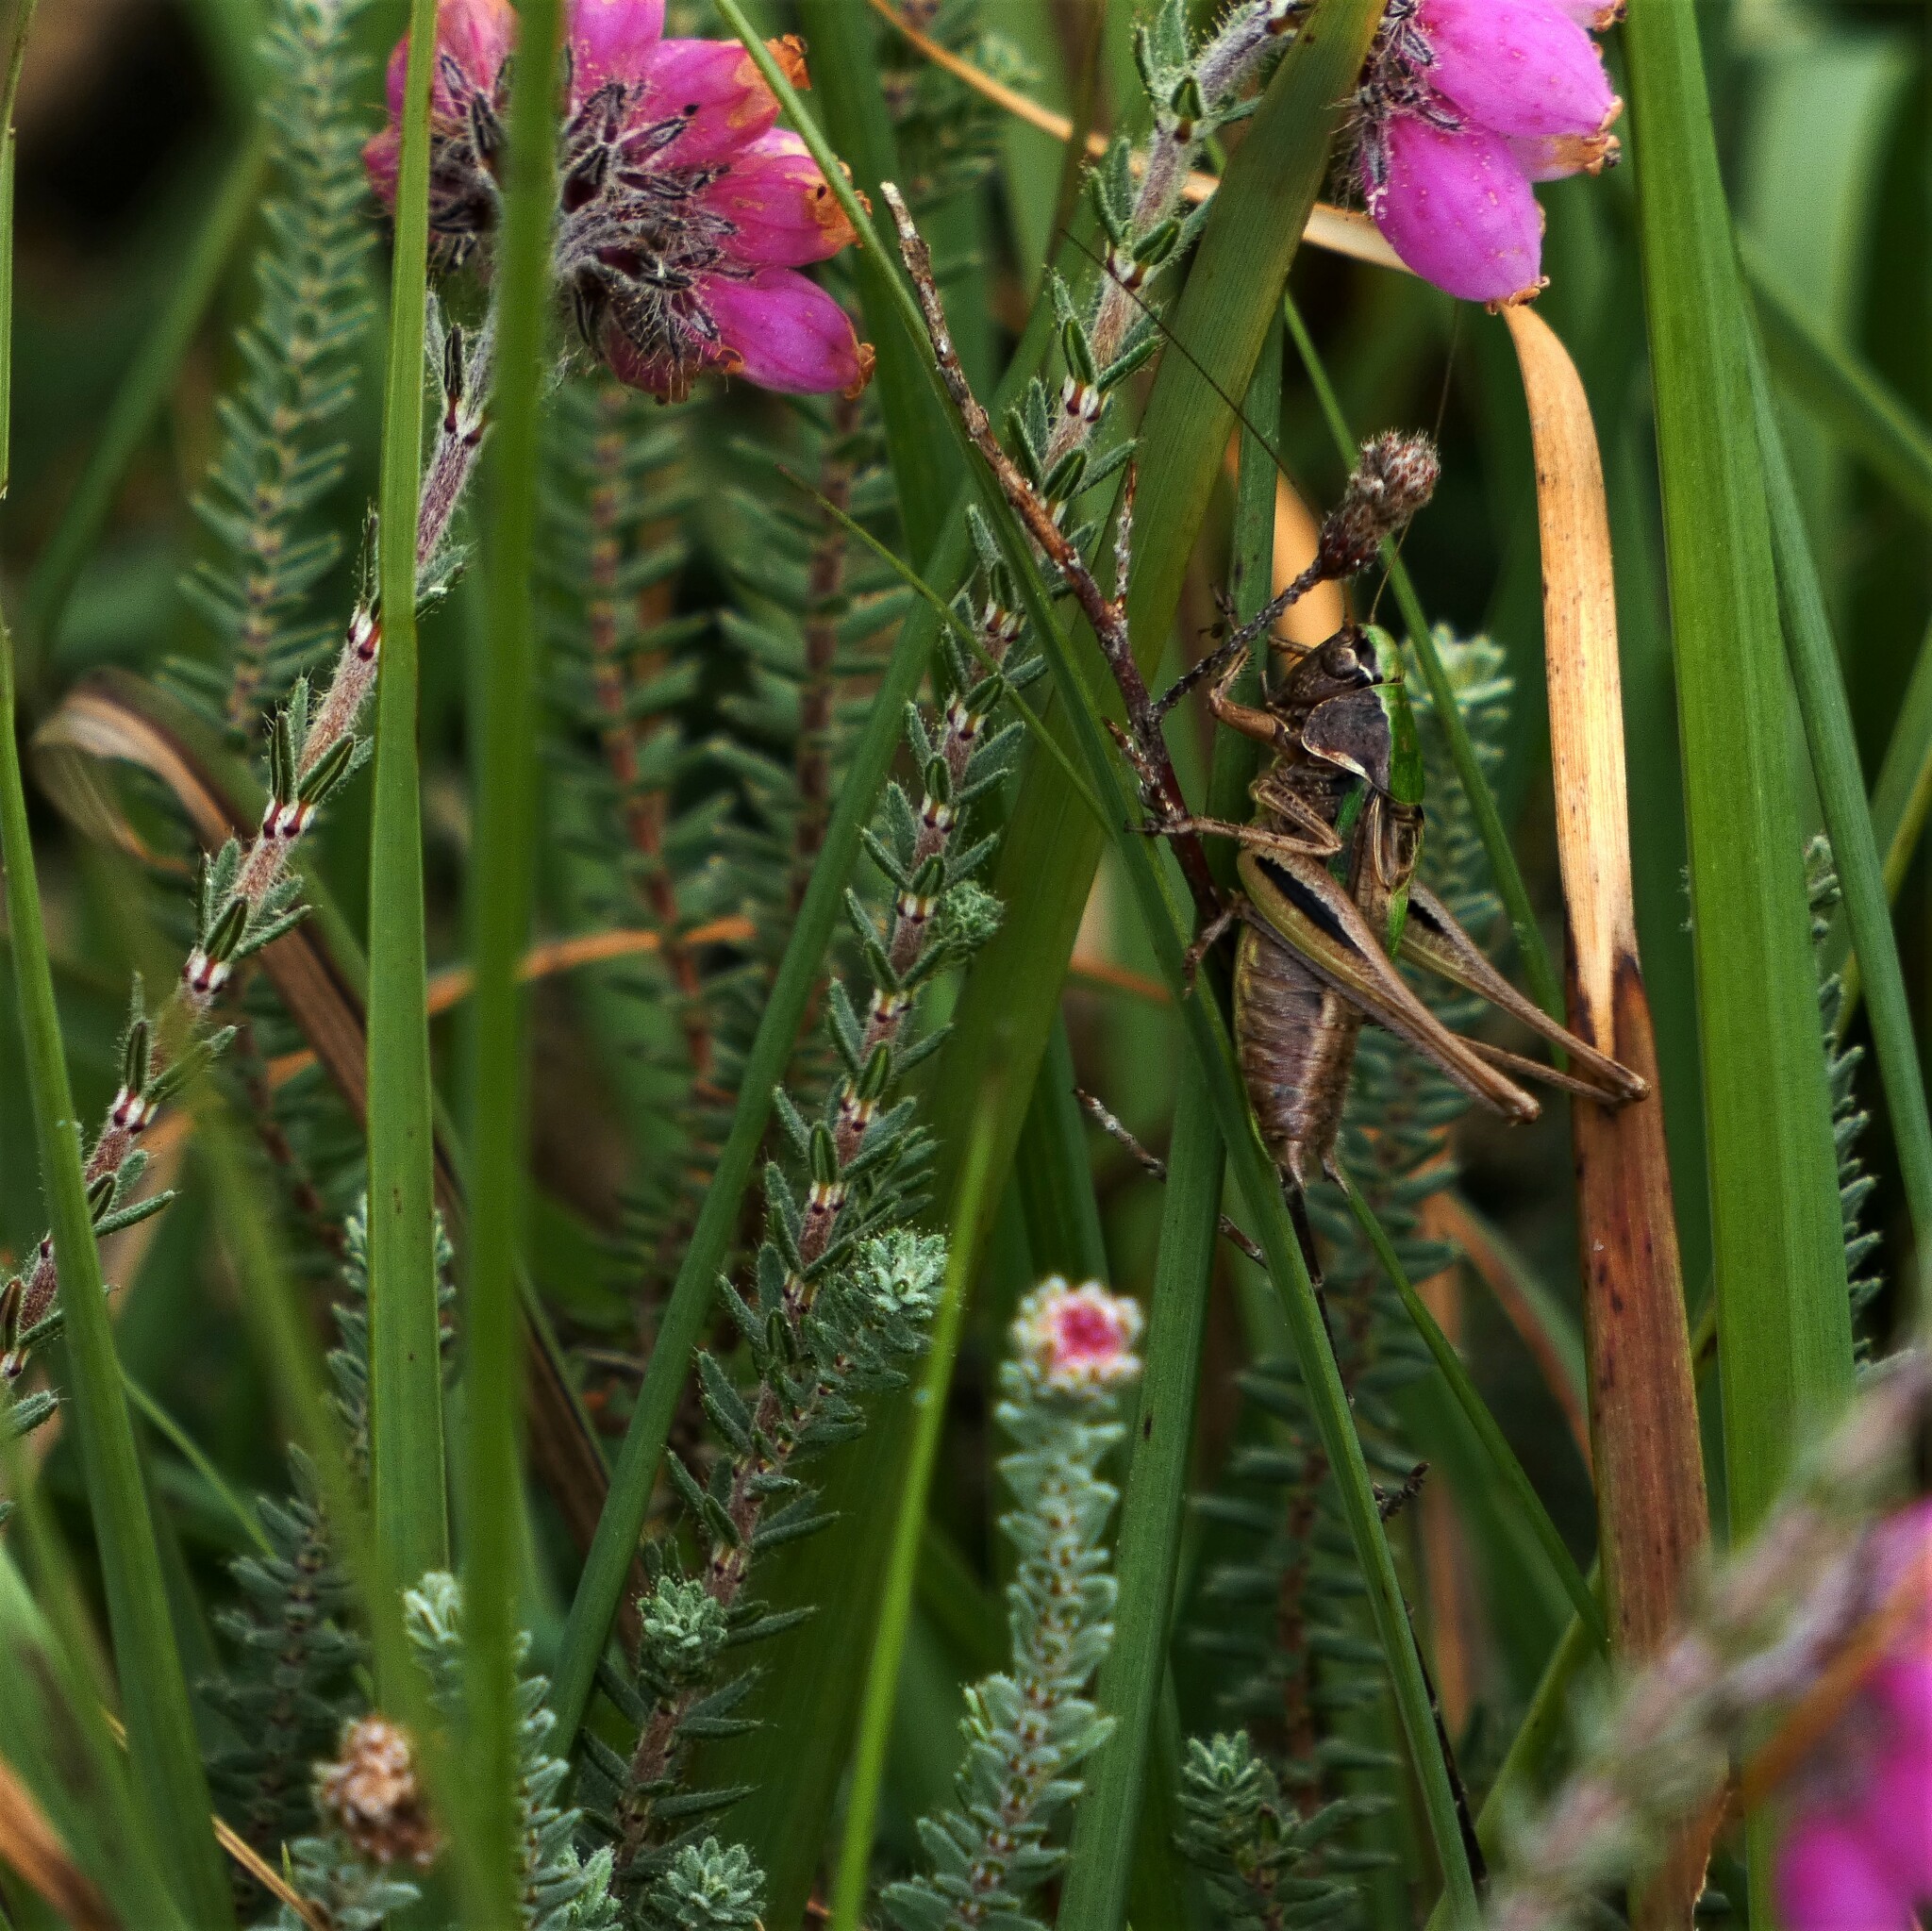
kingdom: Animalia
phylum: Arthropoda
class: Insecta
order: Orthoptera
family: Tettigoniidae
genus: Metrioptera
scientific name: Metrioptera brachyptera
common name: Bog bush-cricket
